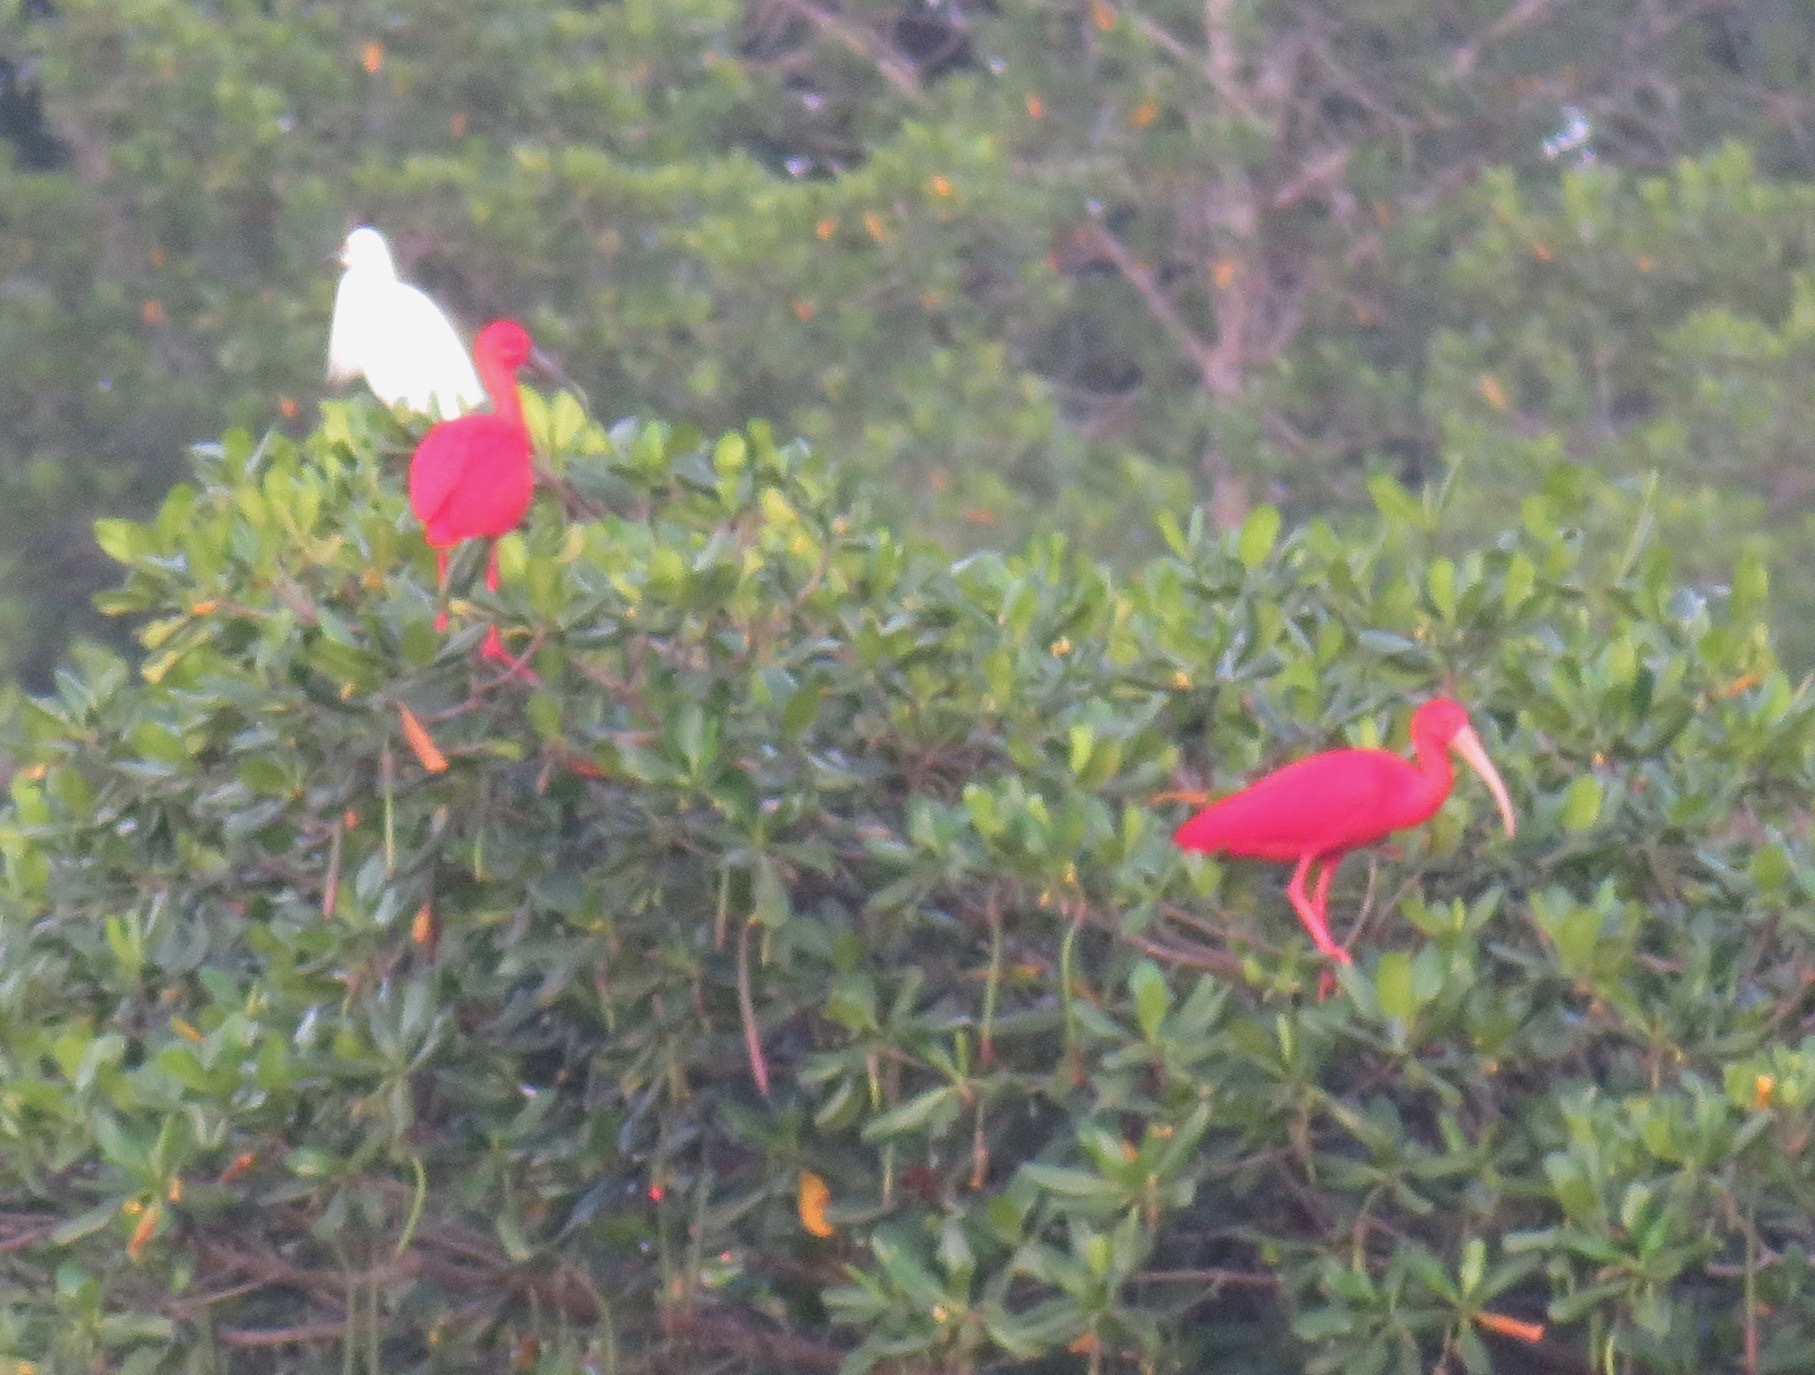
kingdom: Animalia
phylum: Chordata
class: Aves
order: Pelecaniformes
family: Threskiornithidae
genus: Eudocimus
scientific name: Eudocimus ruber
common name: Scarlet ibis
